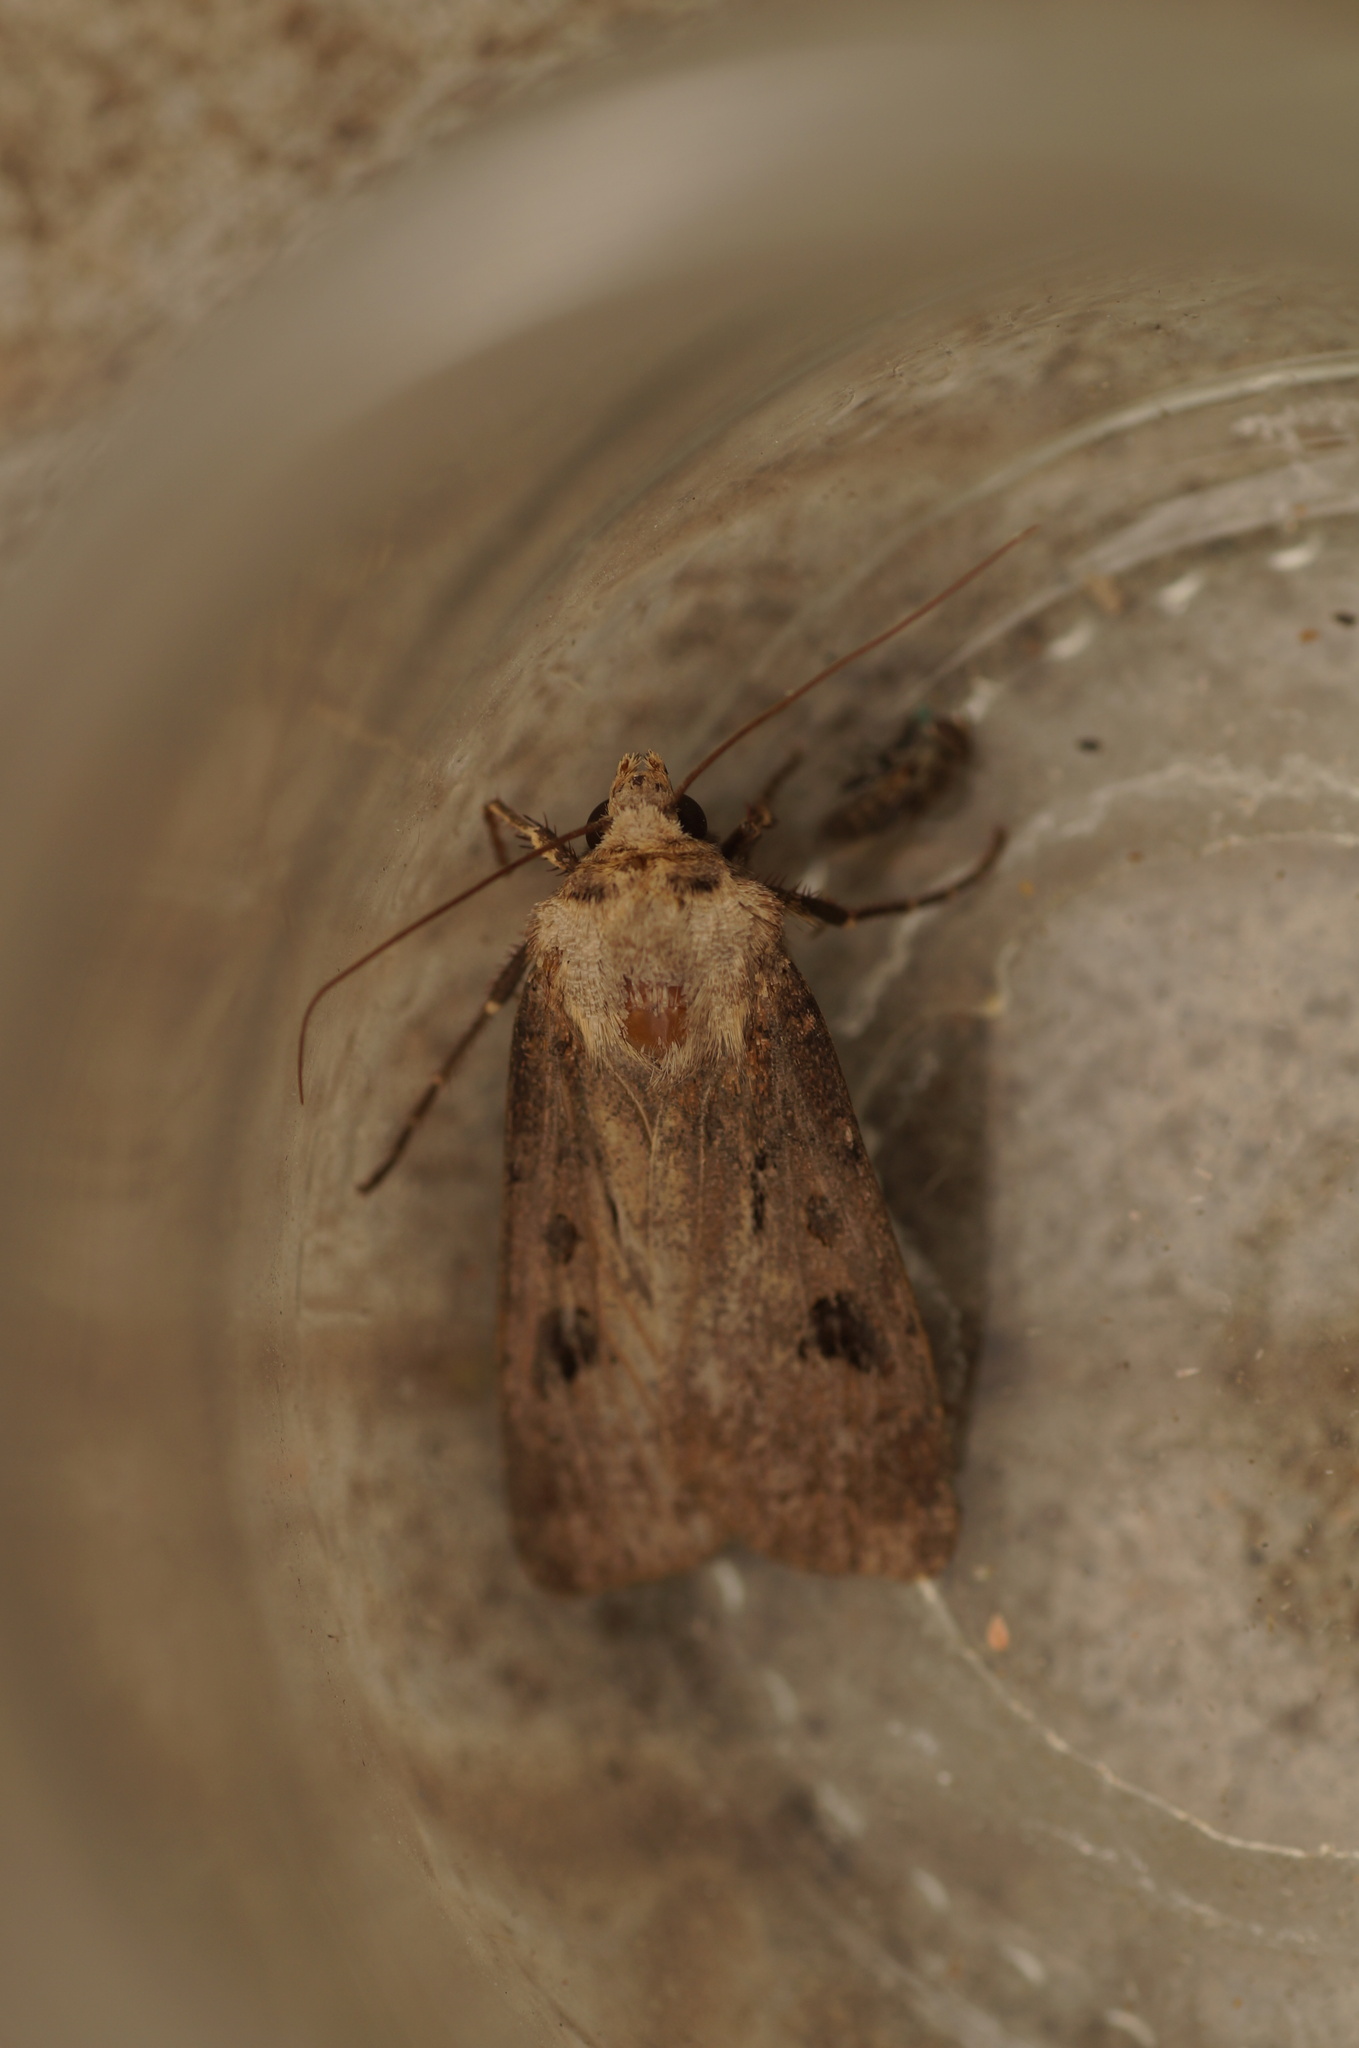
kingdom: Animalia
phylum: Arthropoda
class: Insecta
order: Lepidoptera
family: Noctuidae
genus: Agrotis
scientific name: Agrotis exclamationis
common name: Heart and dart
